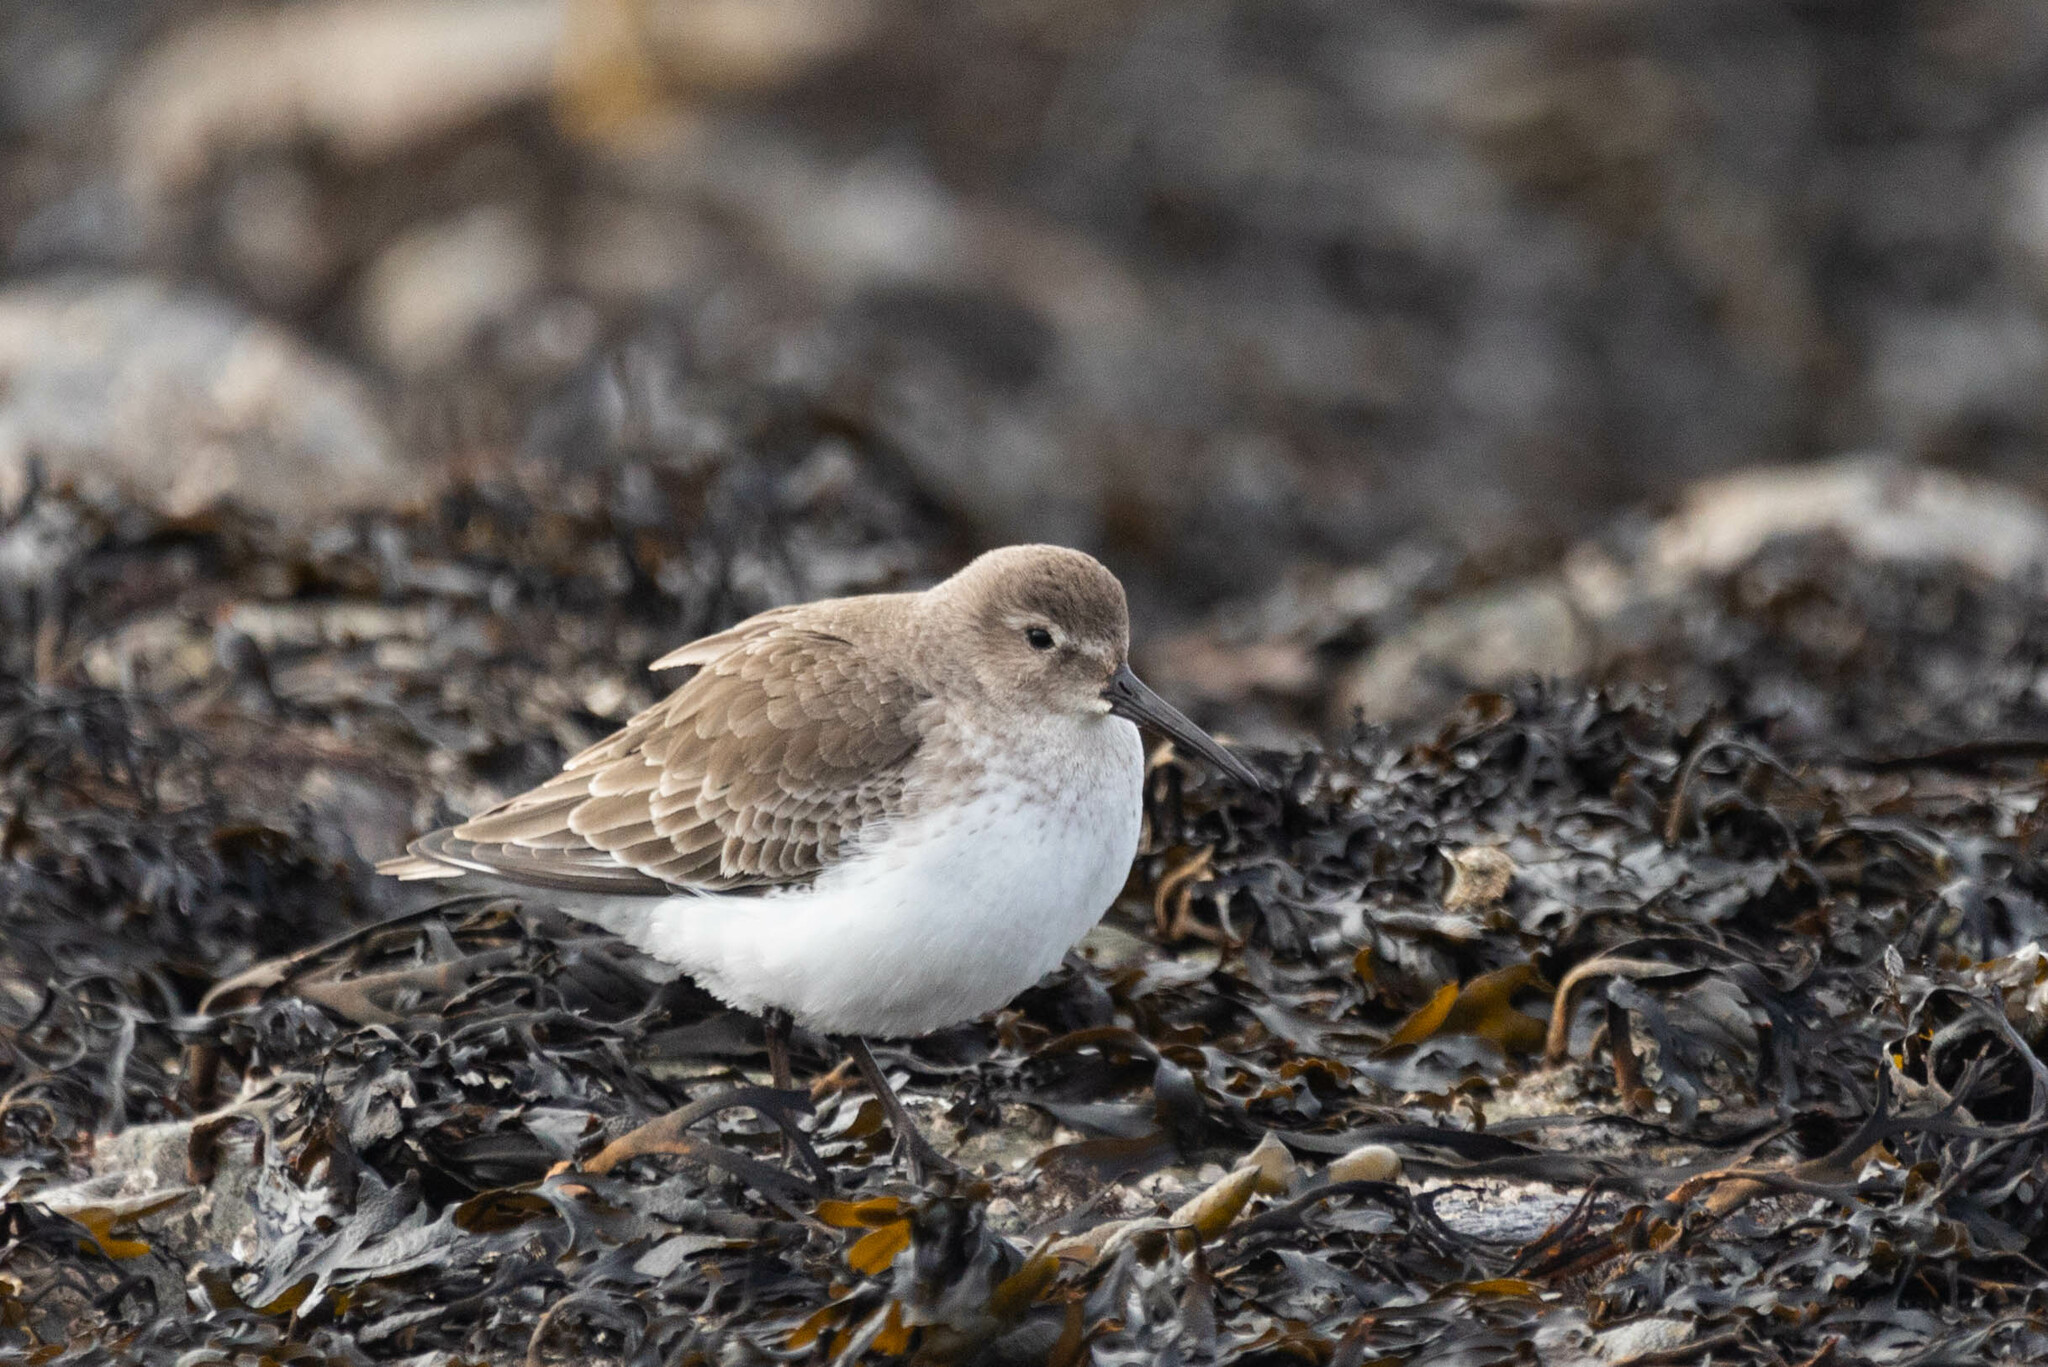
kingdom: Animalia
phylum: Chordata
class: Aves
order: Charadriiformes
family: Scolopacidae
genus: Calidris
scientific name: Calidris alpina
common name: Dunlin
